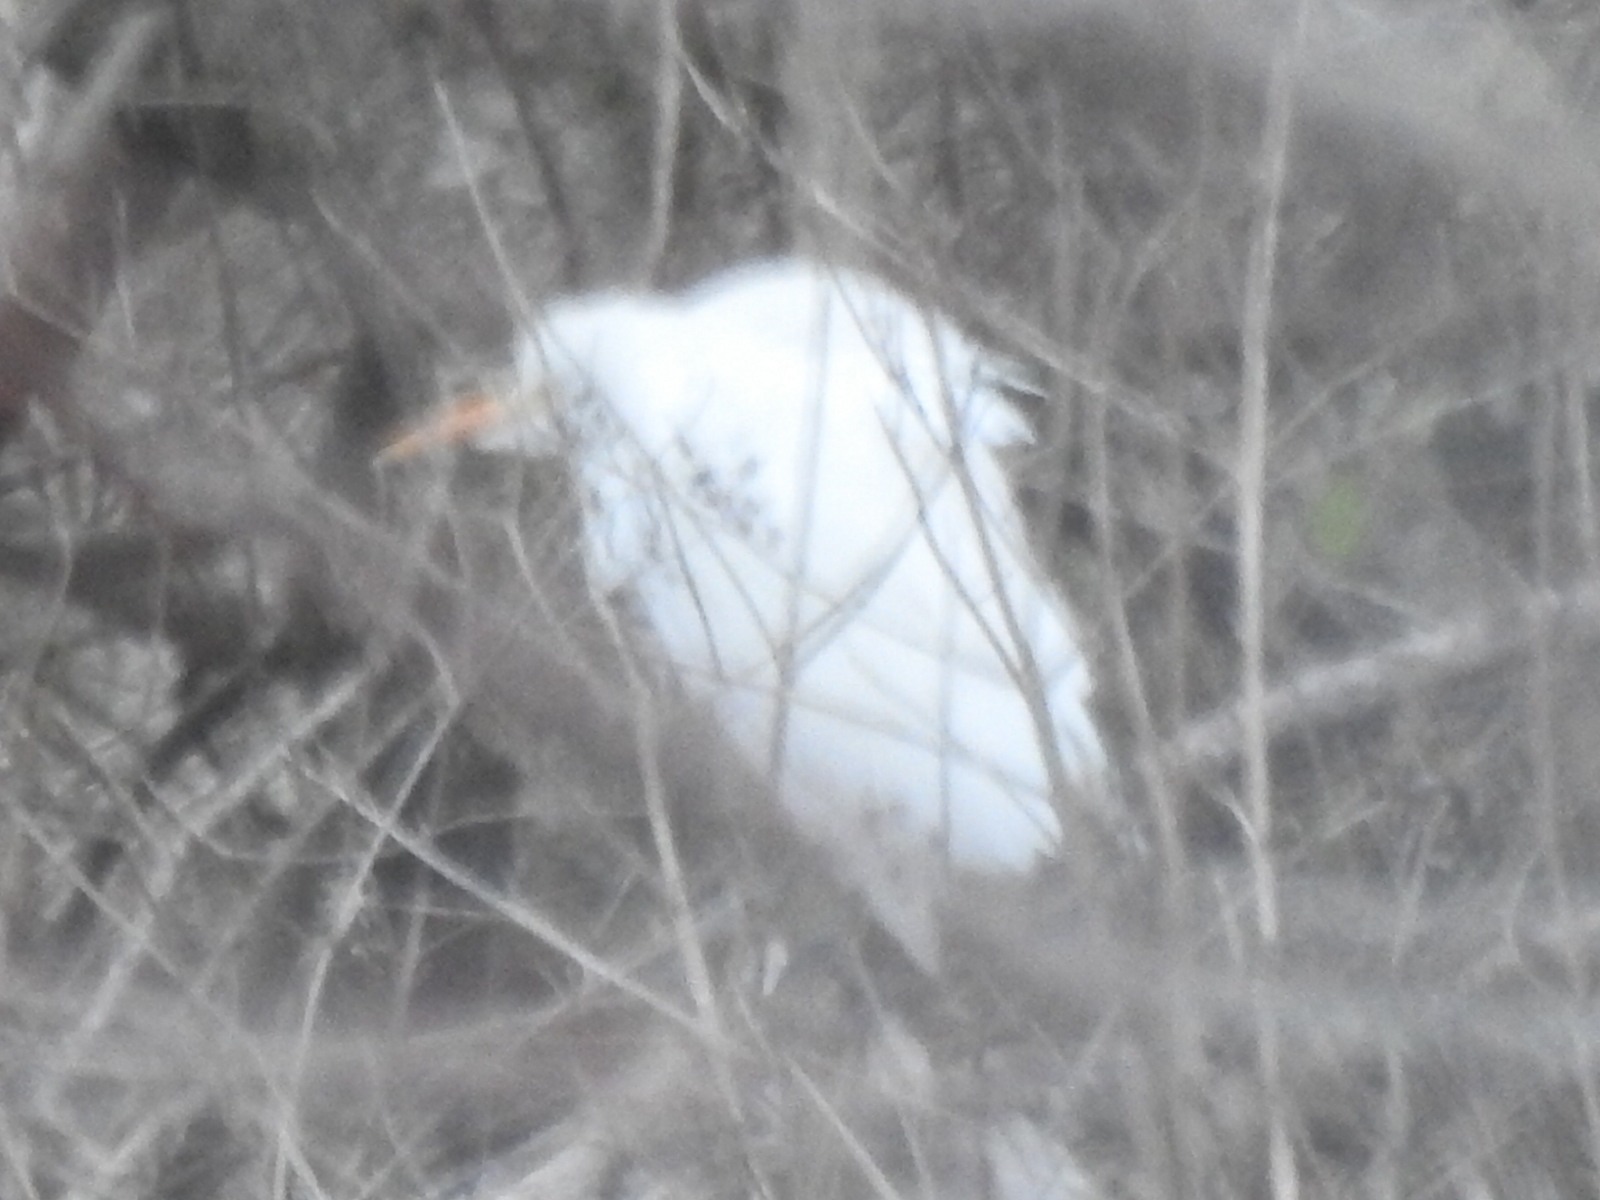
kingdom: Animalia
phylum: Chordata
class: Aves
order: Pelecaniformes
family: Ardeidae
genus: Bubulcus
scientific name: Bubulcus ibis
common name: Cattle egret
